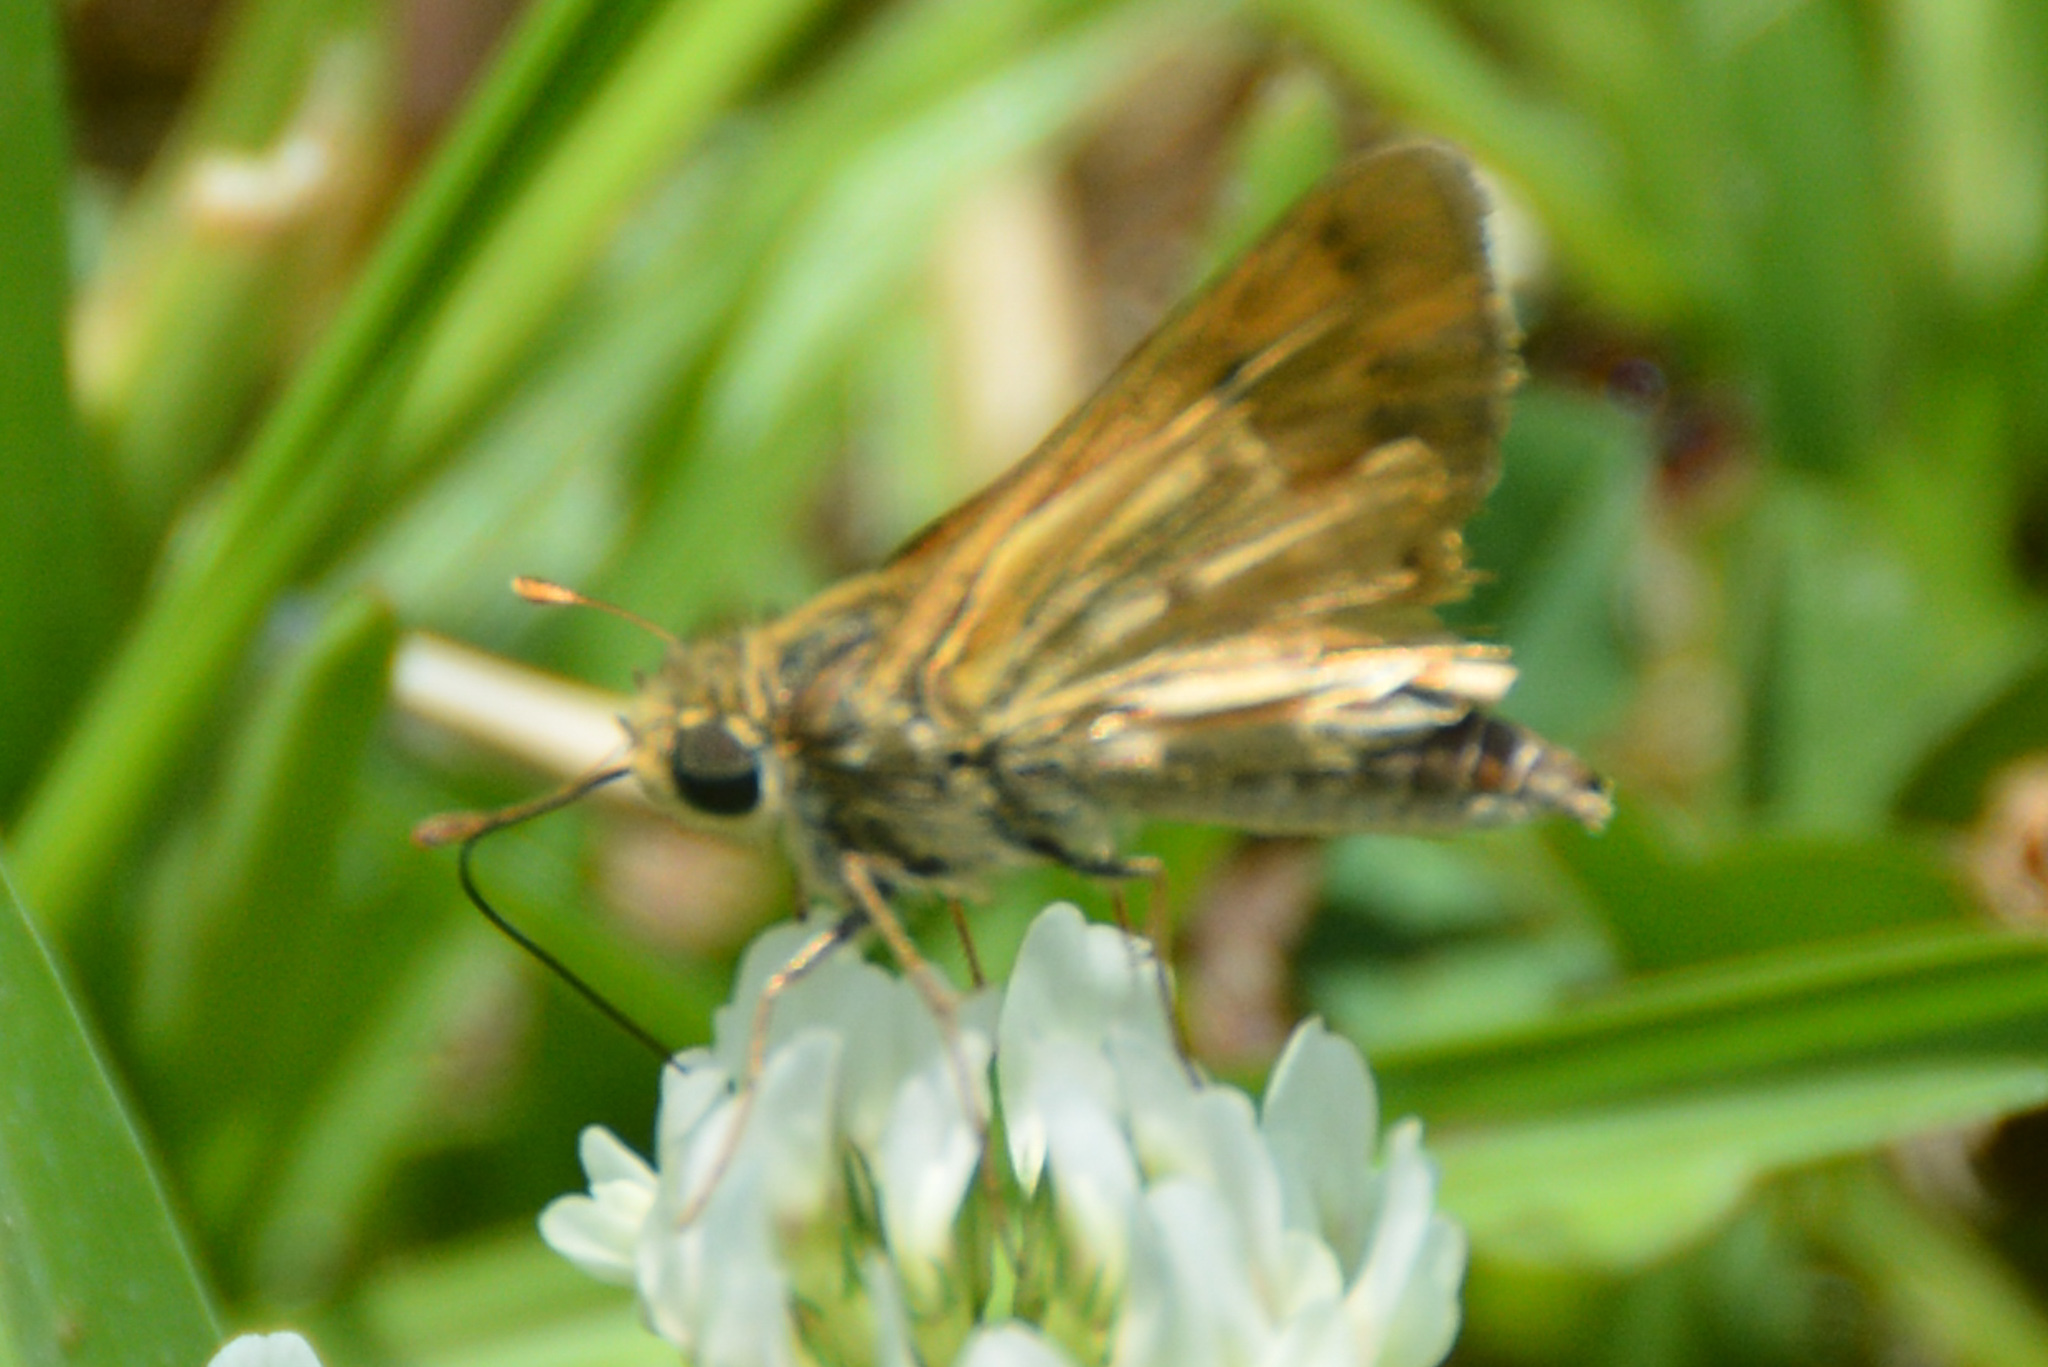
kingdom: Animalia
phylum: Arthropoda
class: Insecta
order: Lepidoptera
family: Hesperiidae
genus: Hylephila
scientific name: Hylephila phyleus
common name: Fiery skipper
